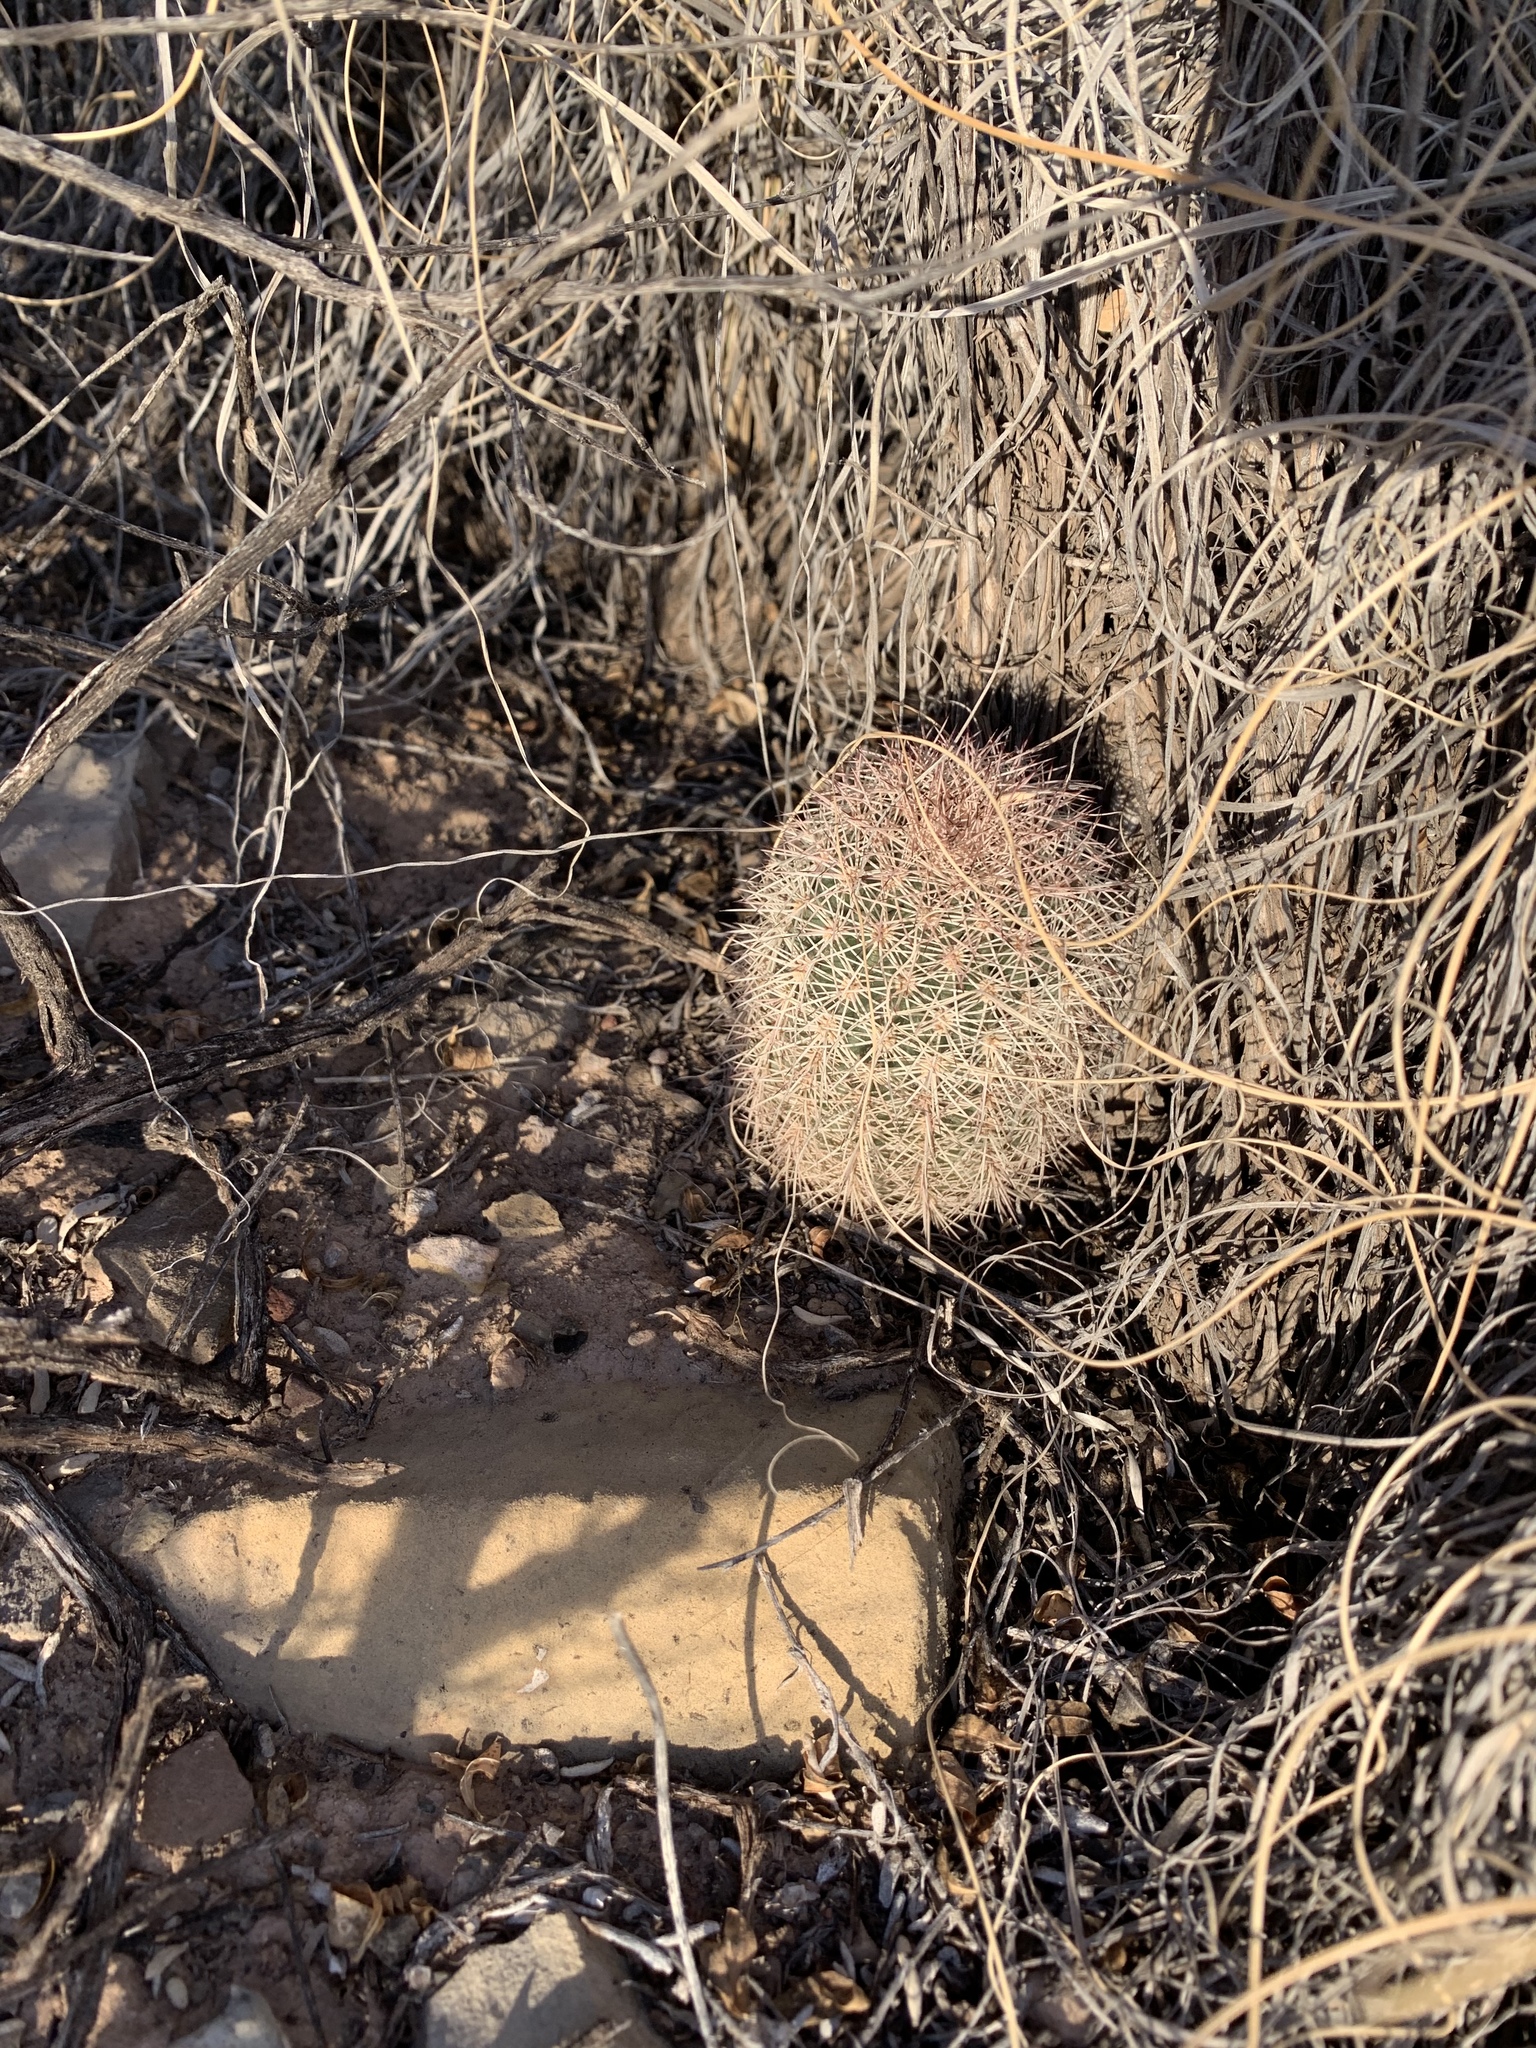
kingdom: Plantae
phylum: Tracheophyta
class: Magnoliopsida
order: Caryophyllales
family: Cactaceae
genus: Echinocereus
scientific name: Echinocereus dasyacanthus
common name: Spiny hedgehog cactus
